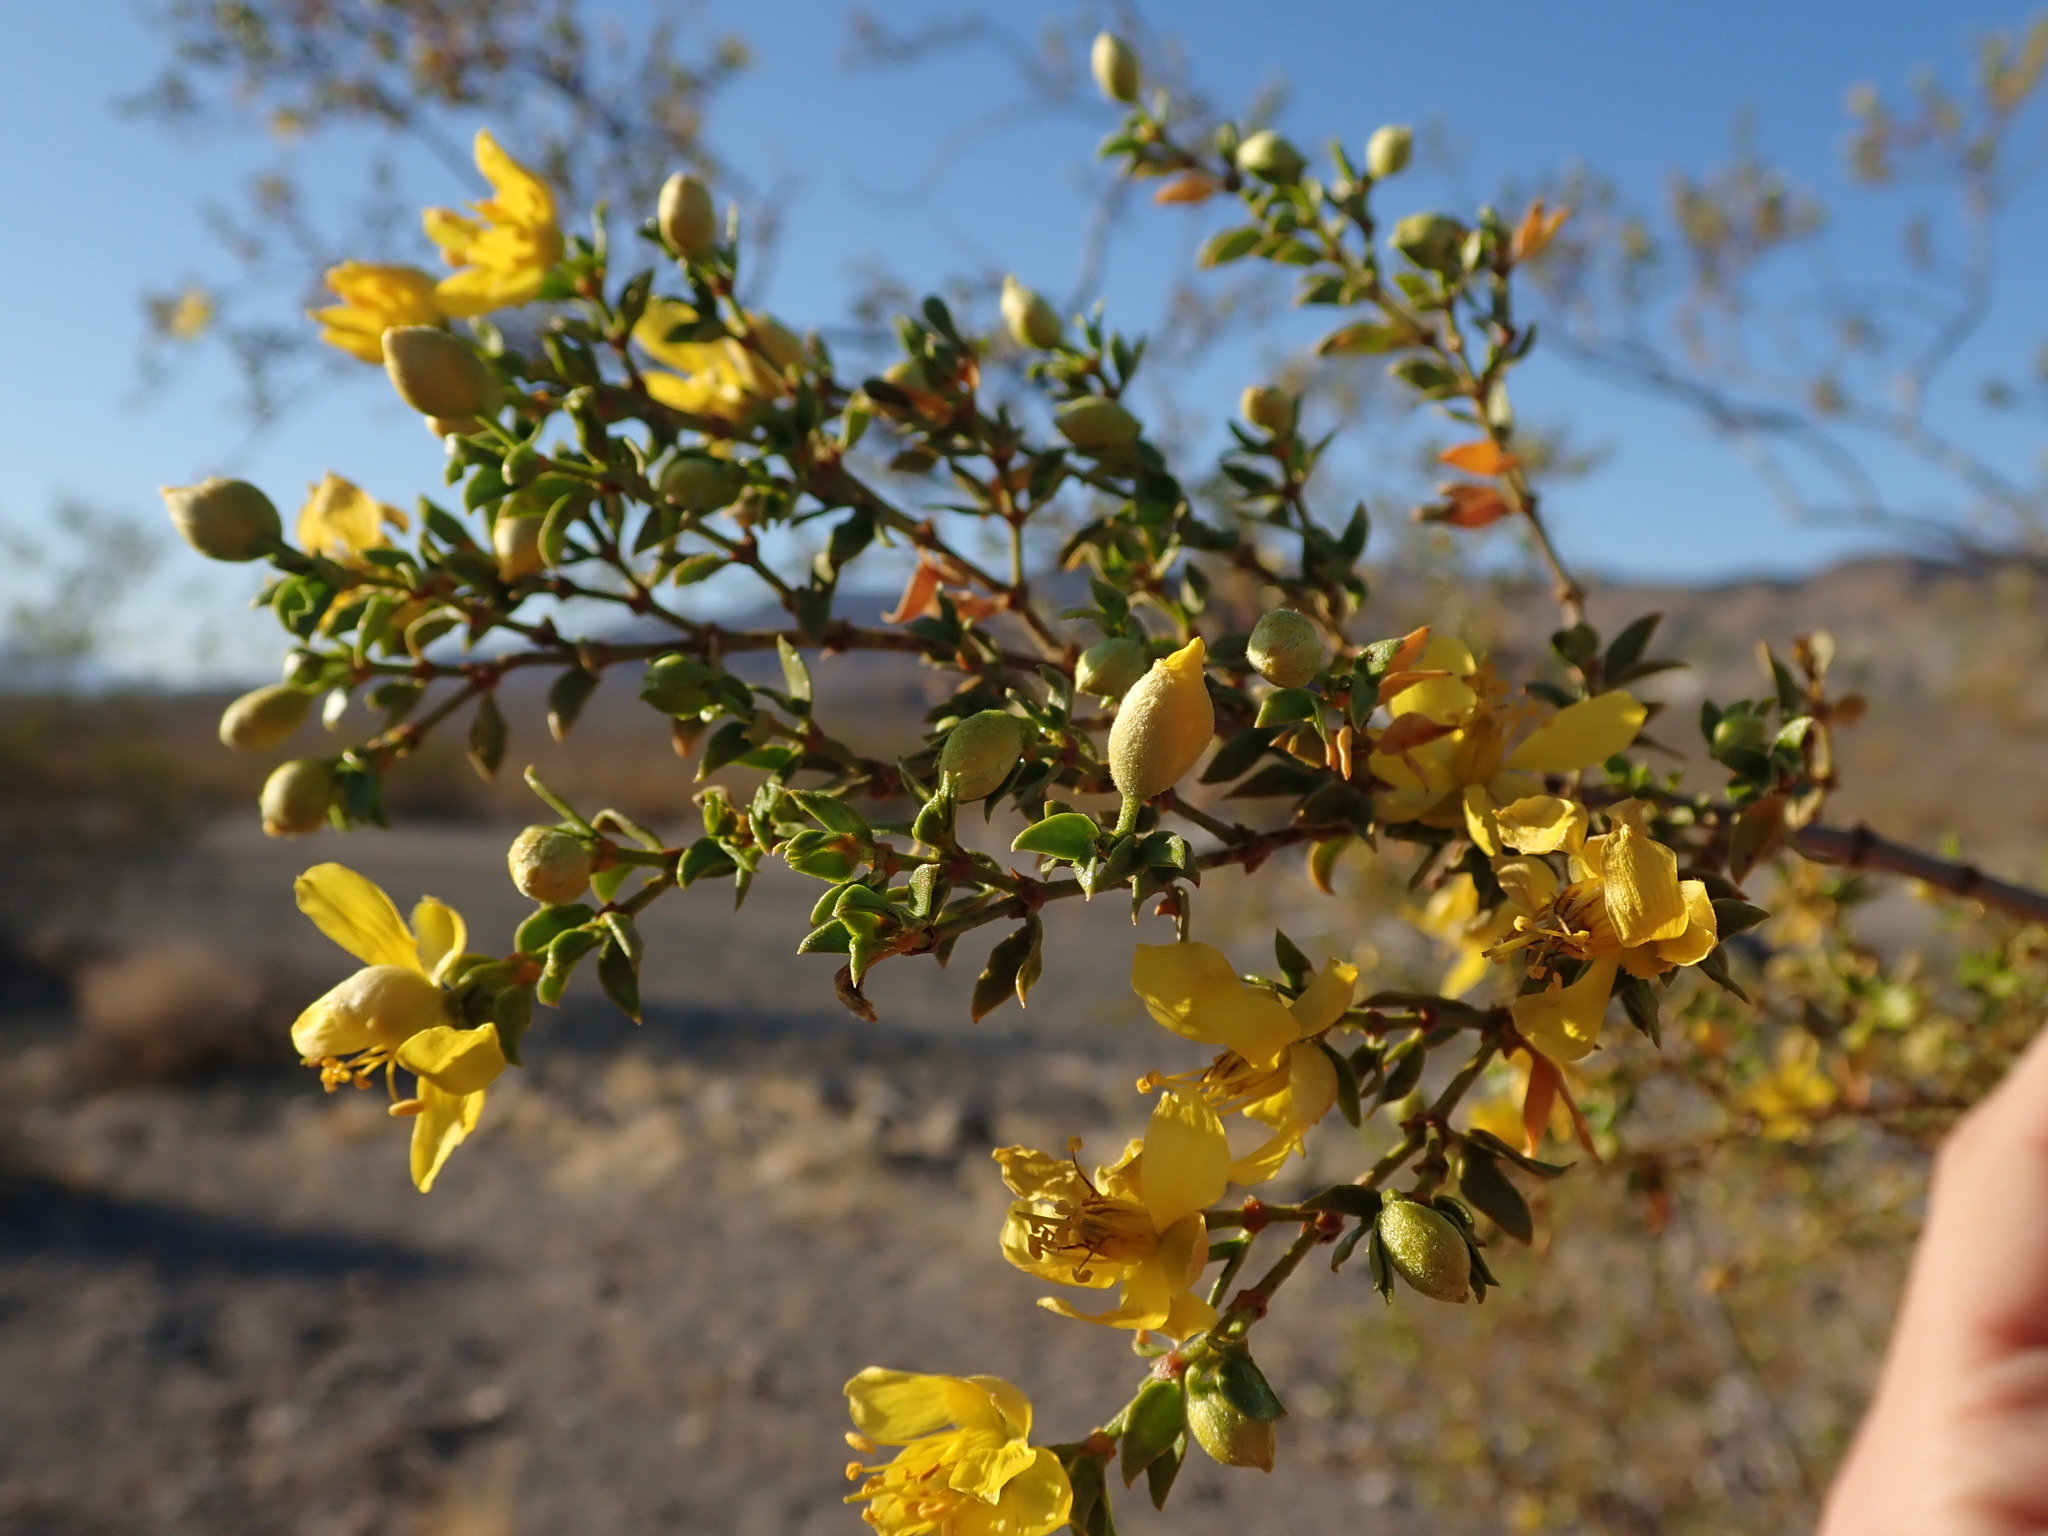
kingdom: Plantae
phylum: Tracheophyta
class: Magnoliopsida
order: Zygophyllales
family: Zygophyllaceae
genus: Larrea
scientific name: Larrea tridentata
